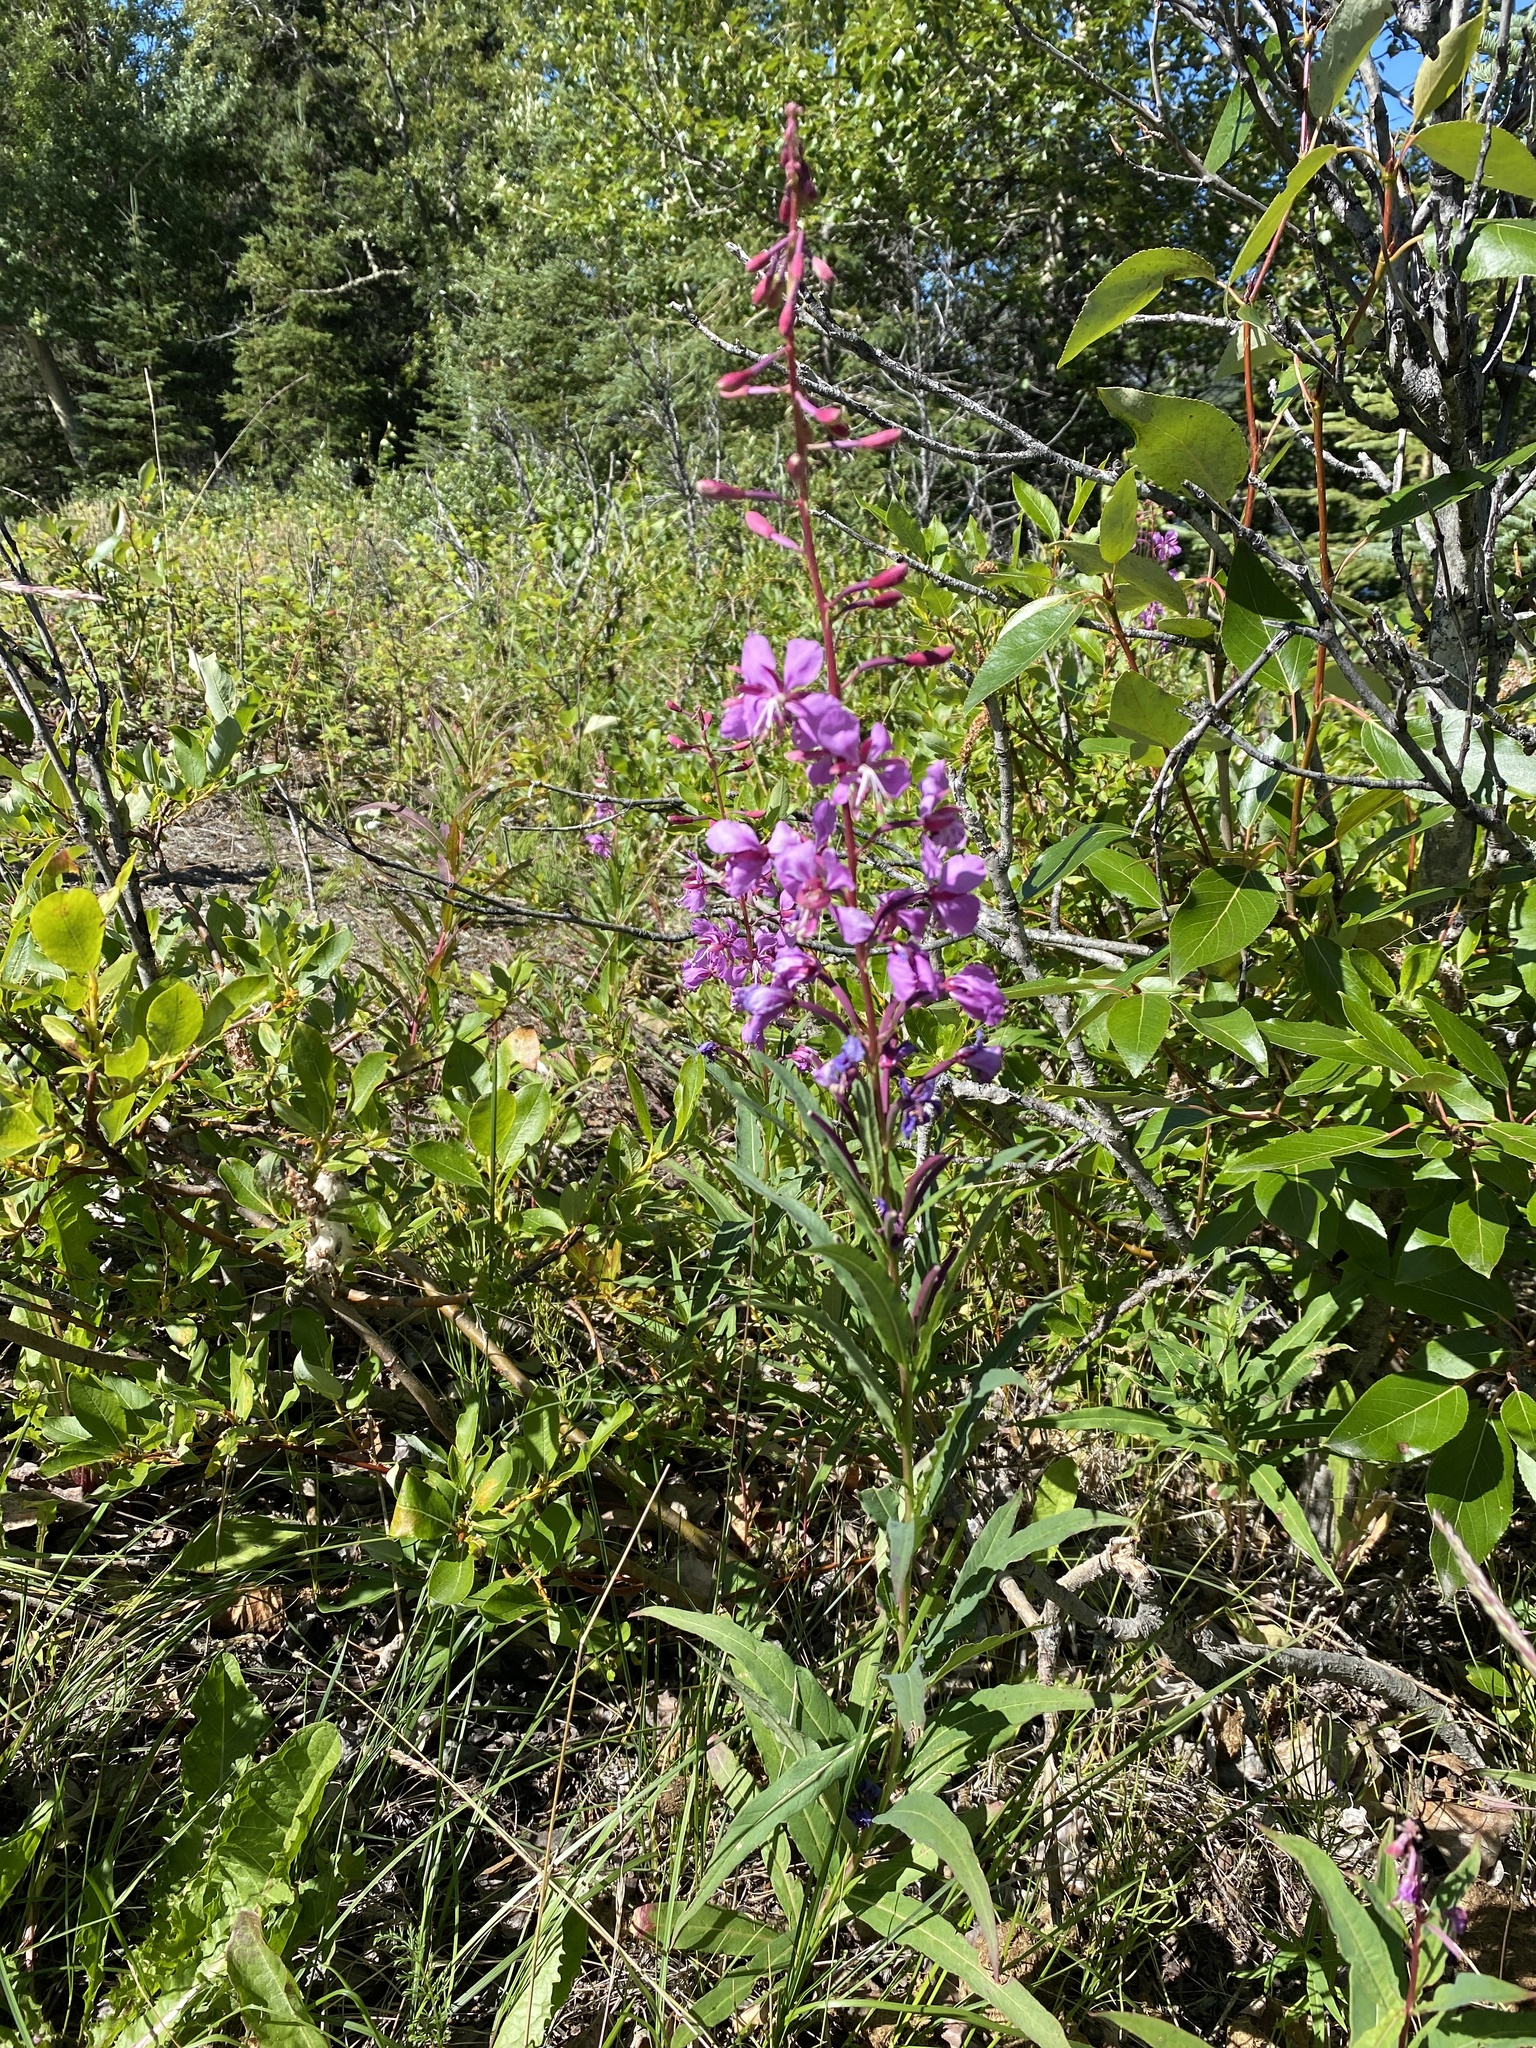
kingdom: Plantae
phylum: Tracheophyta
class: Magnoliopsida
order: Myrtales
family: Onagraceae
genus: Chamaenerion
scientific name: Chamaenerion angustifolium
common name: Fireweed
